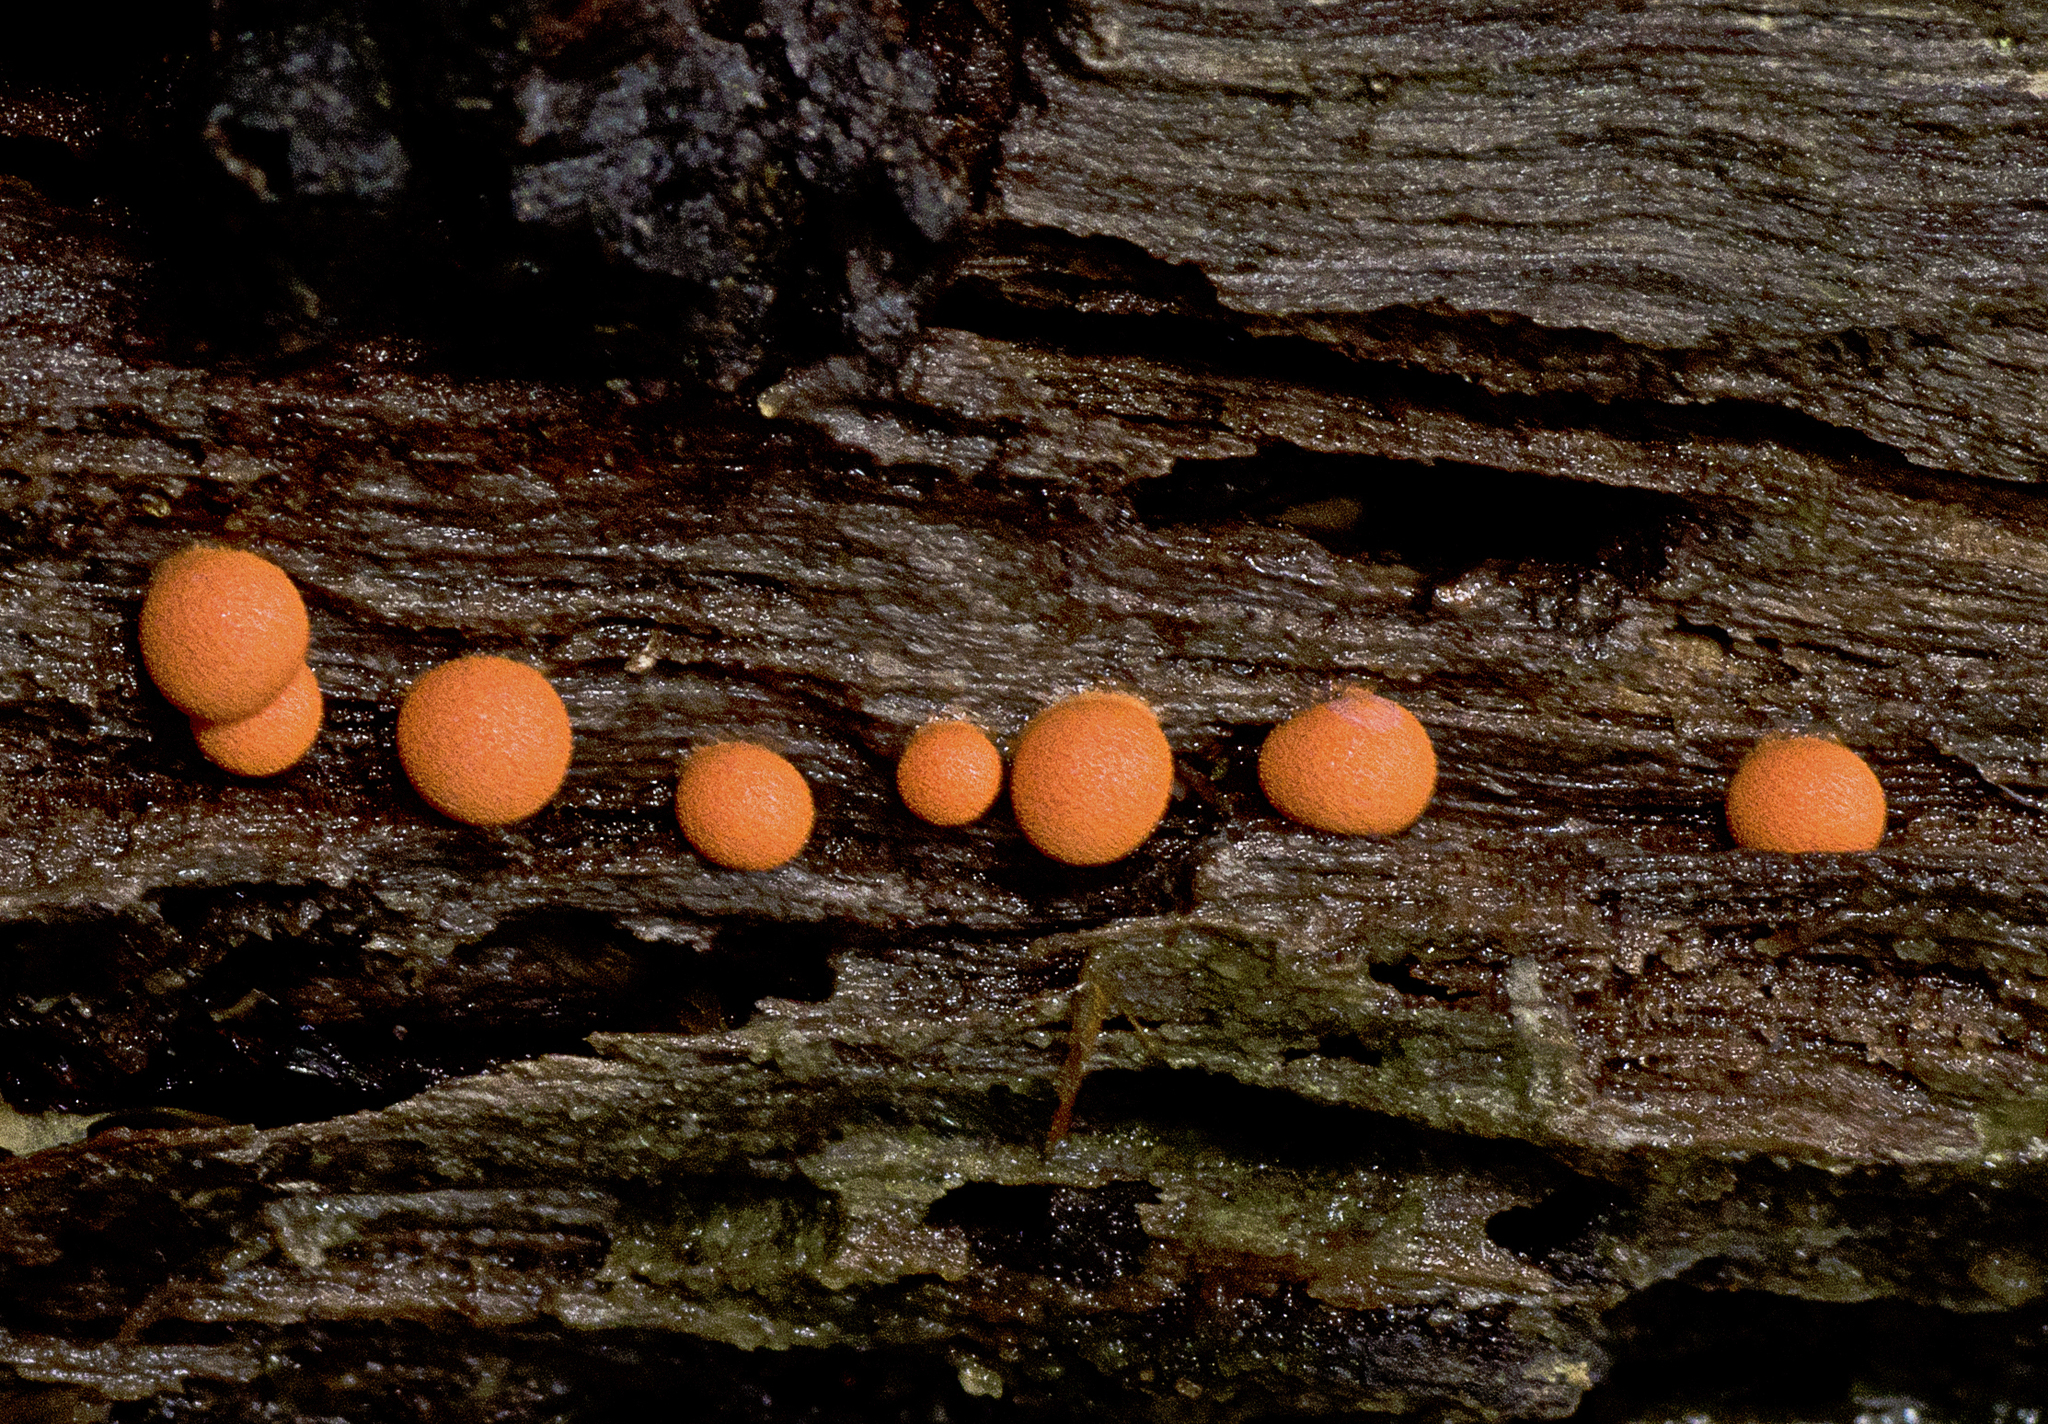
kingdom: Protozoa
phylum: Mycetozoa
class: Myxomycetes
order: Cribrariales
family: Tubiferaceae
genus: Lycogala
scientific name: Lycogala epidendrum
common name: Wolf's milk
